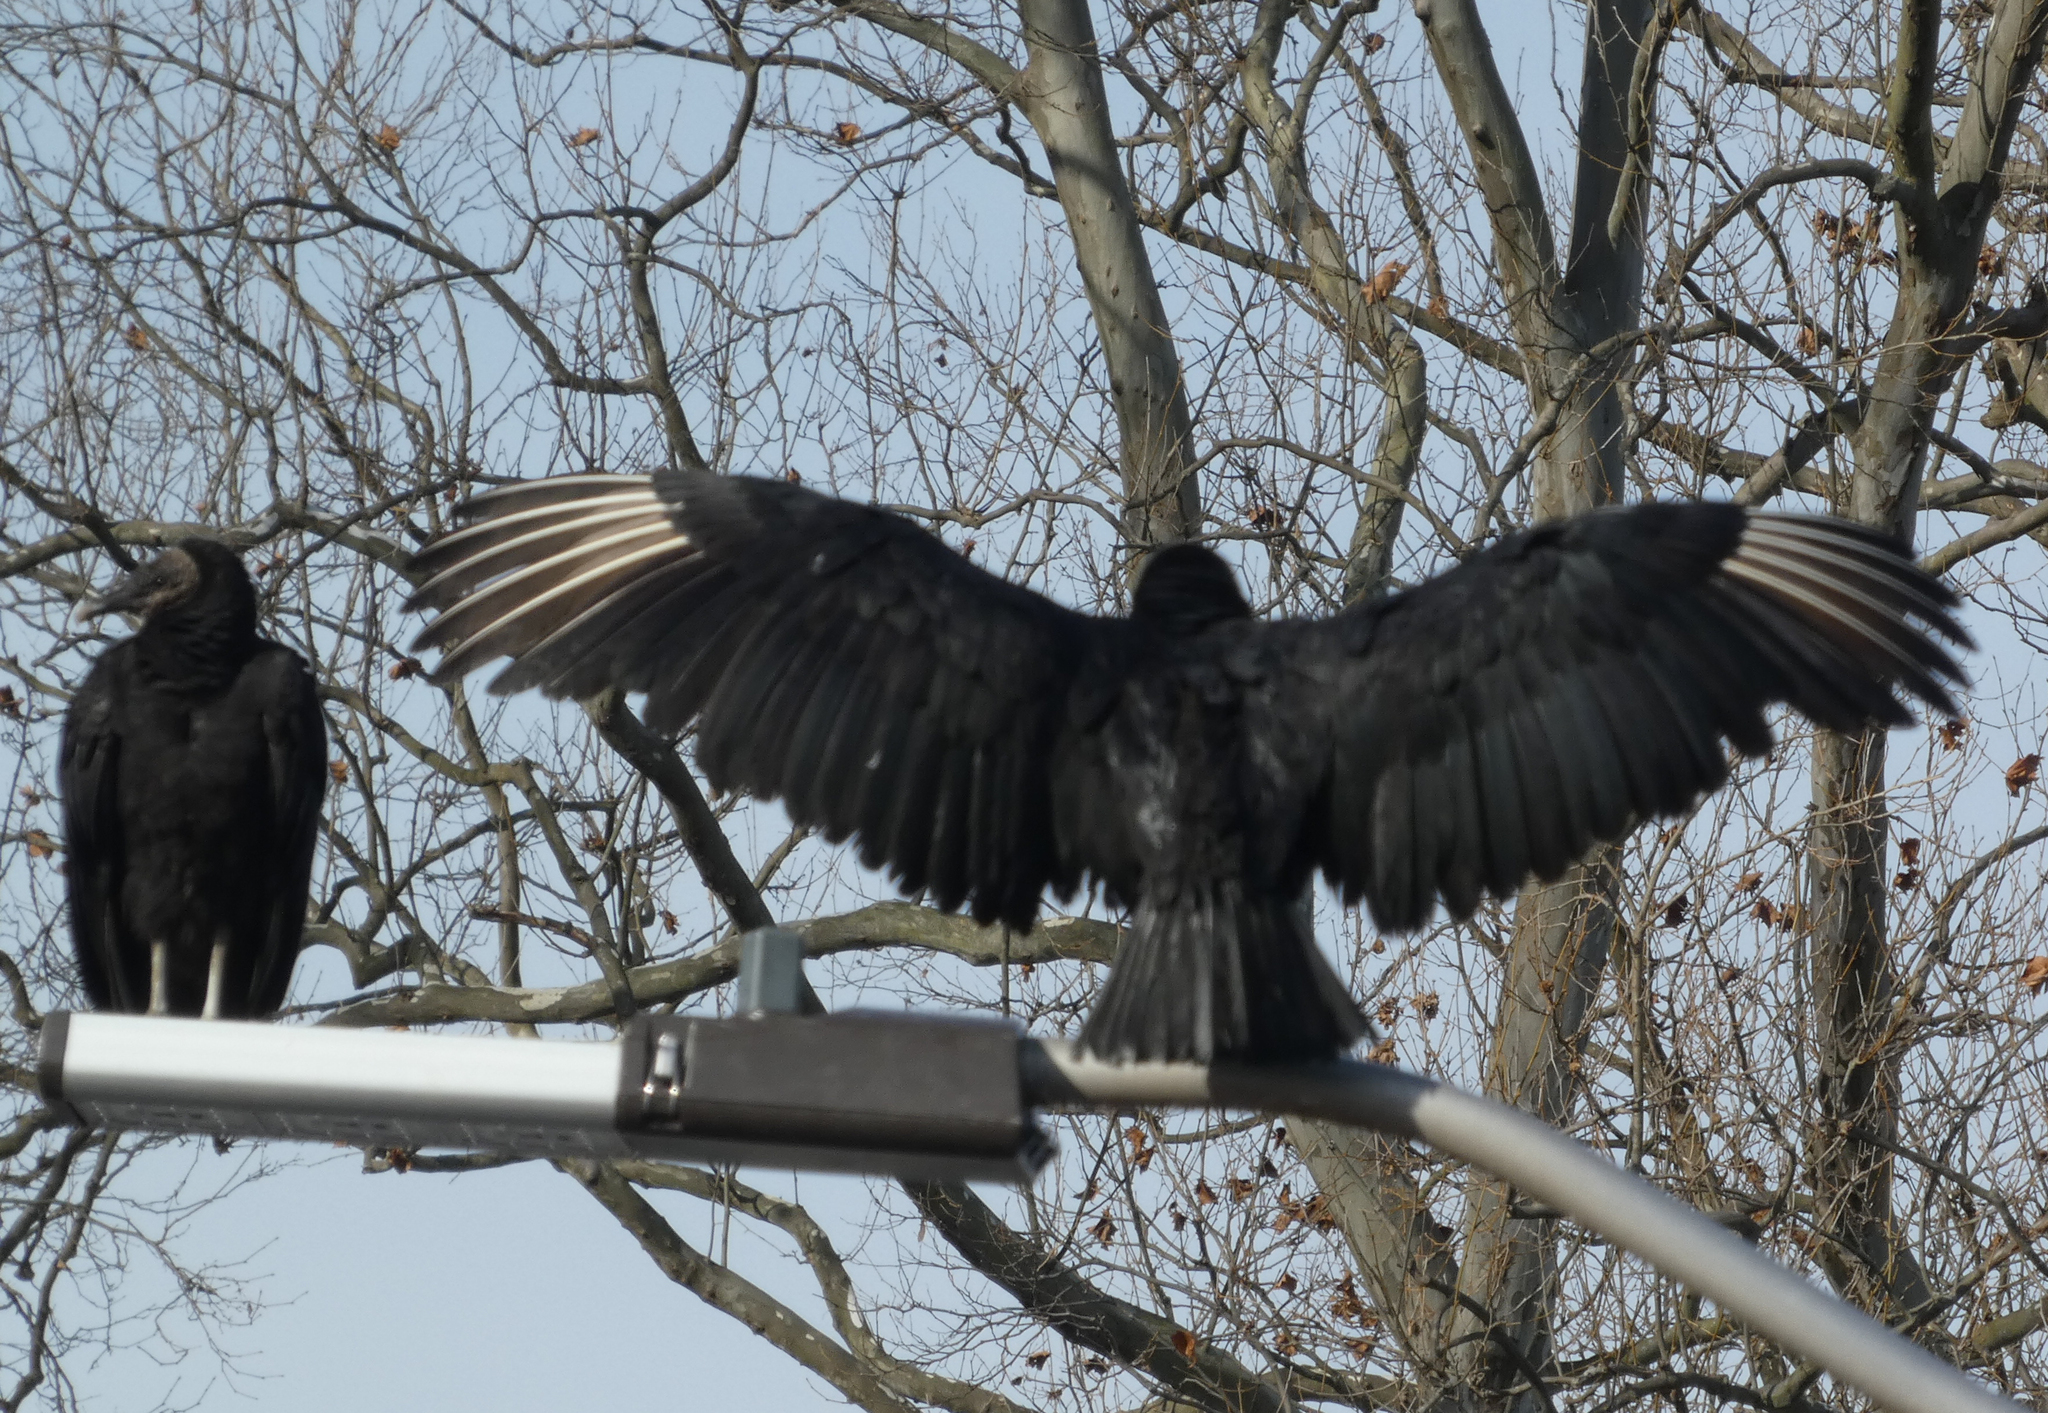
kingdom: Animalia
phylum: Chordata
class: Aves
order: Accipitriformes
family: Cathartidae
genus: Coragyps
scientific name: Coragyps atratus
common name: Black vulture
